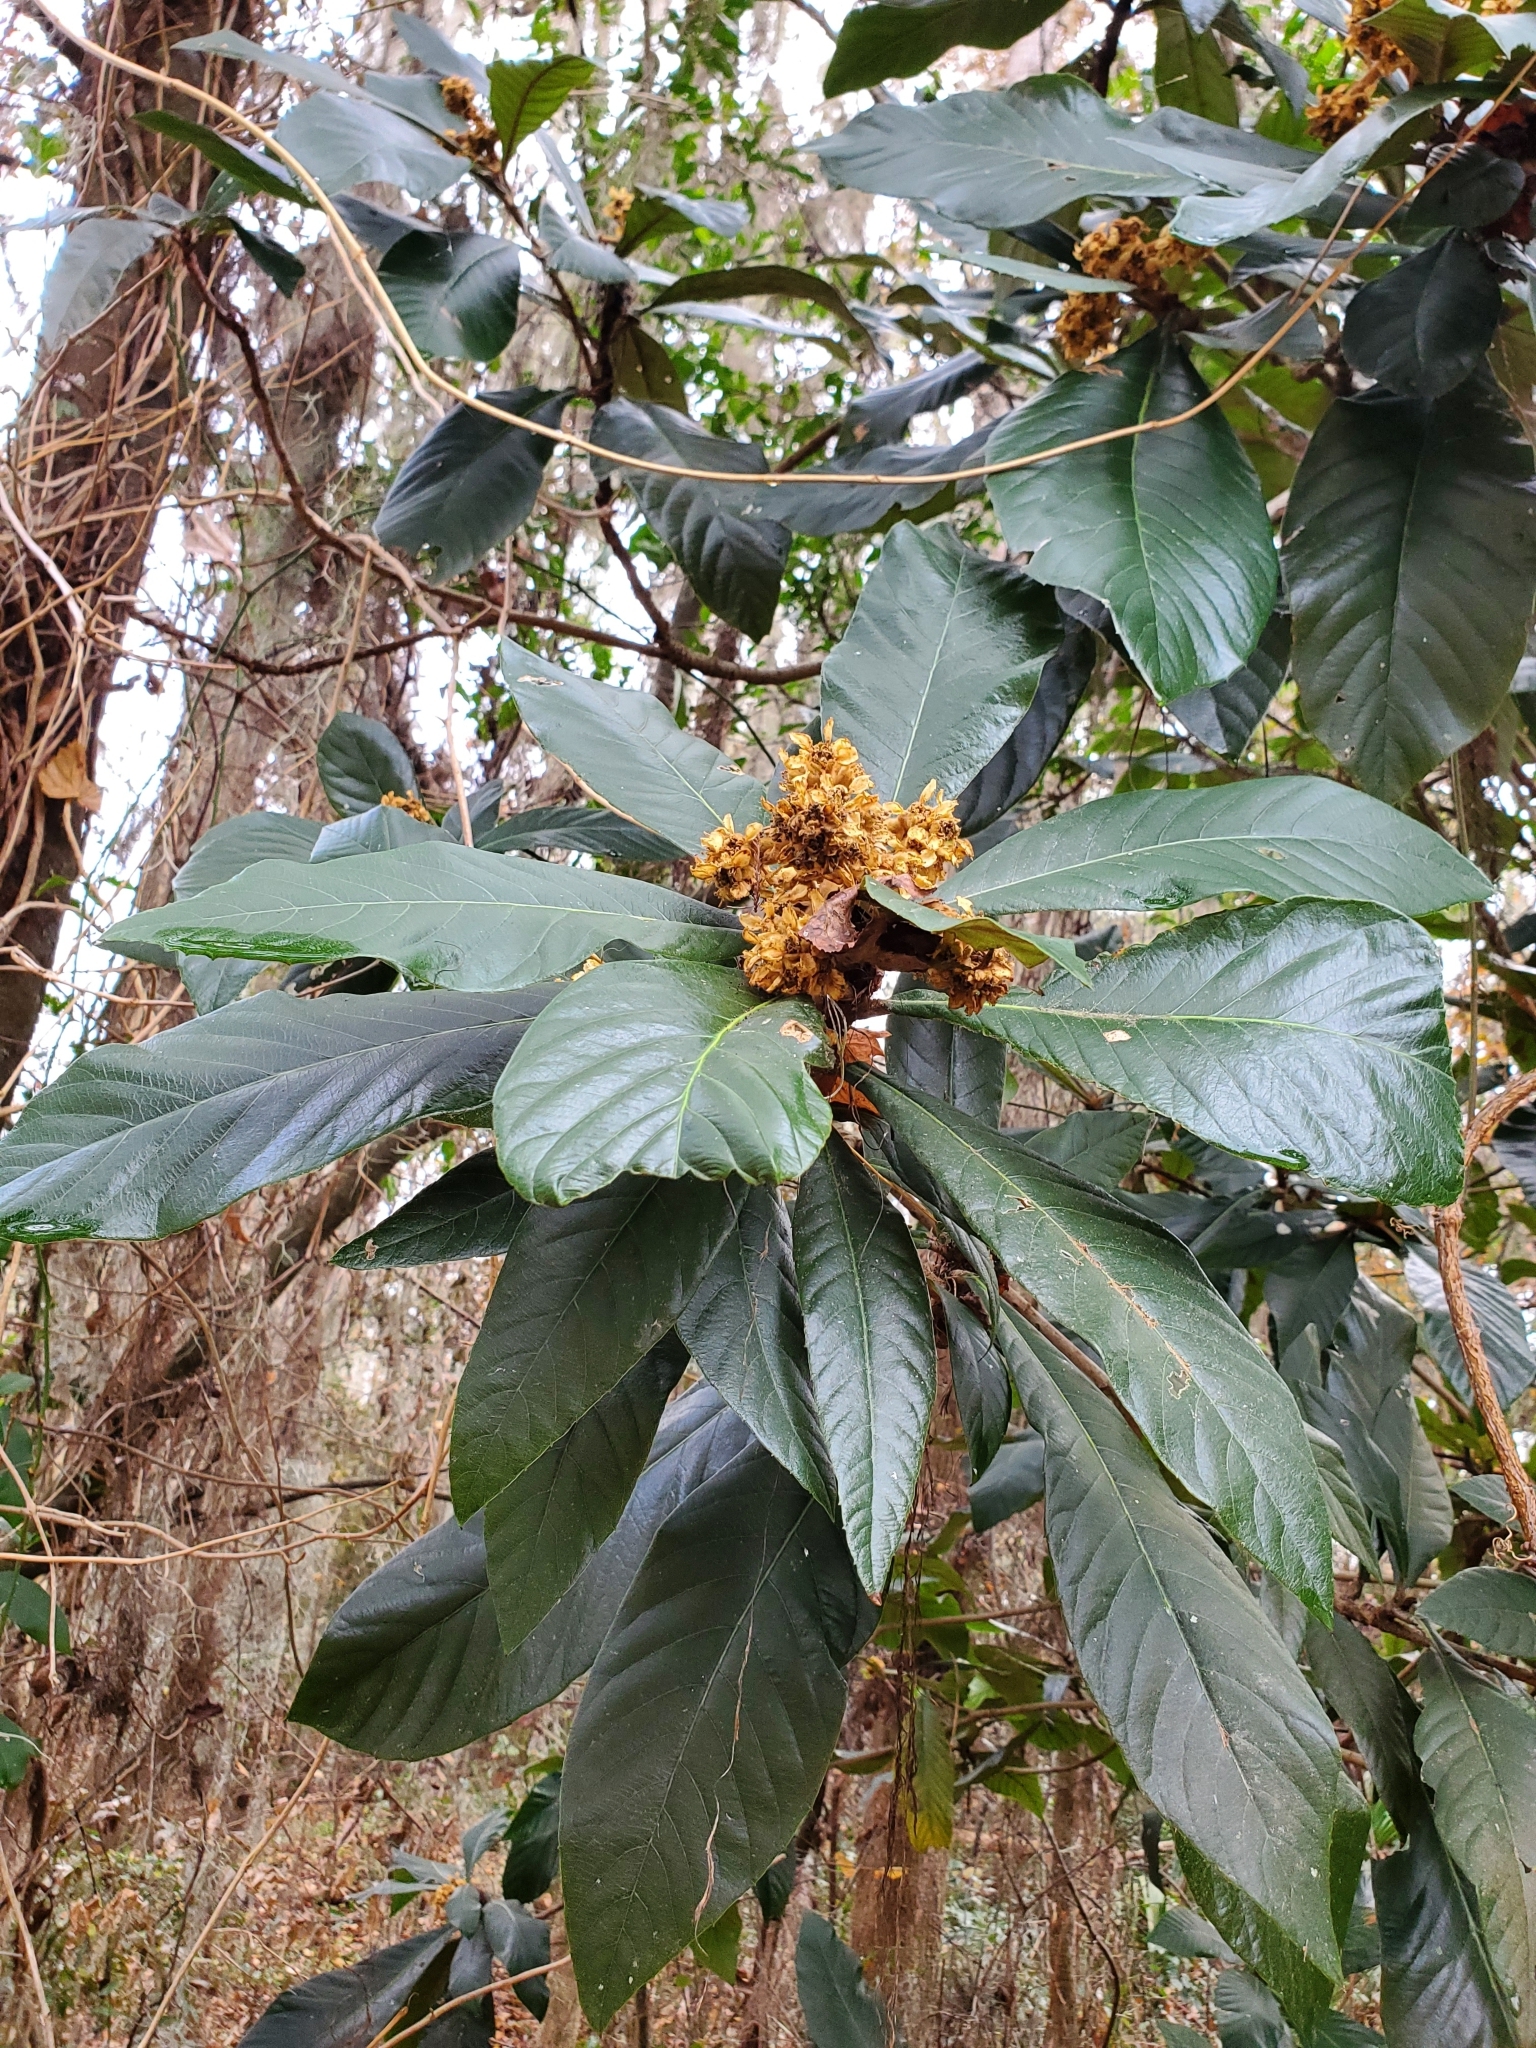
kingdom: Plantae
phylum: Tracheophyta
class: Magnoliopsida
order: Rosales
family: Rosaceae
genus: Rhaphiolepis
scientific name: Rhaphiolepis bibas
